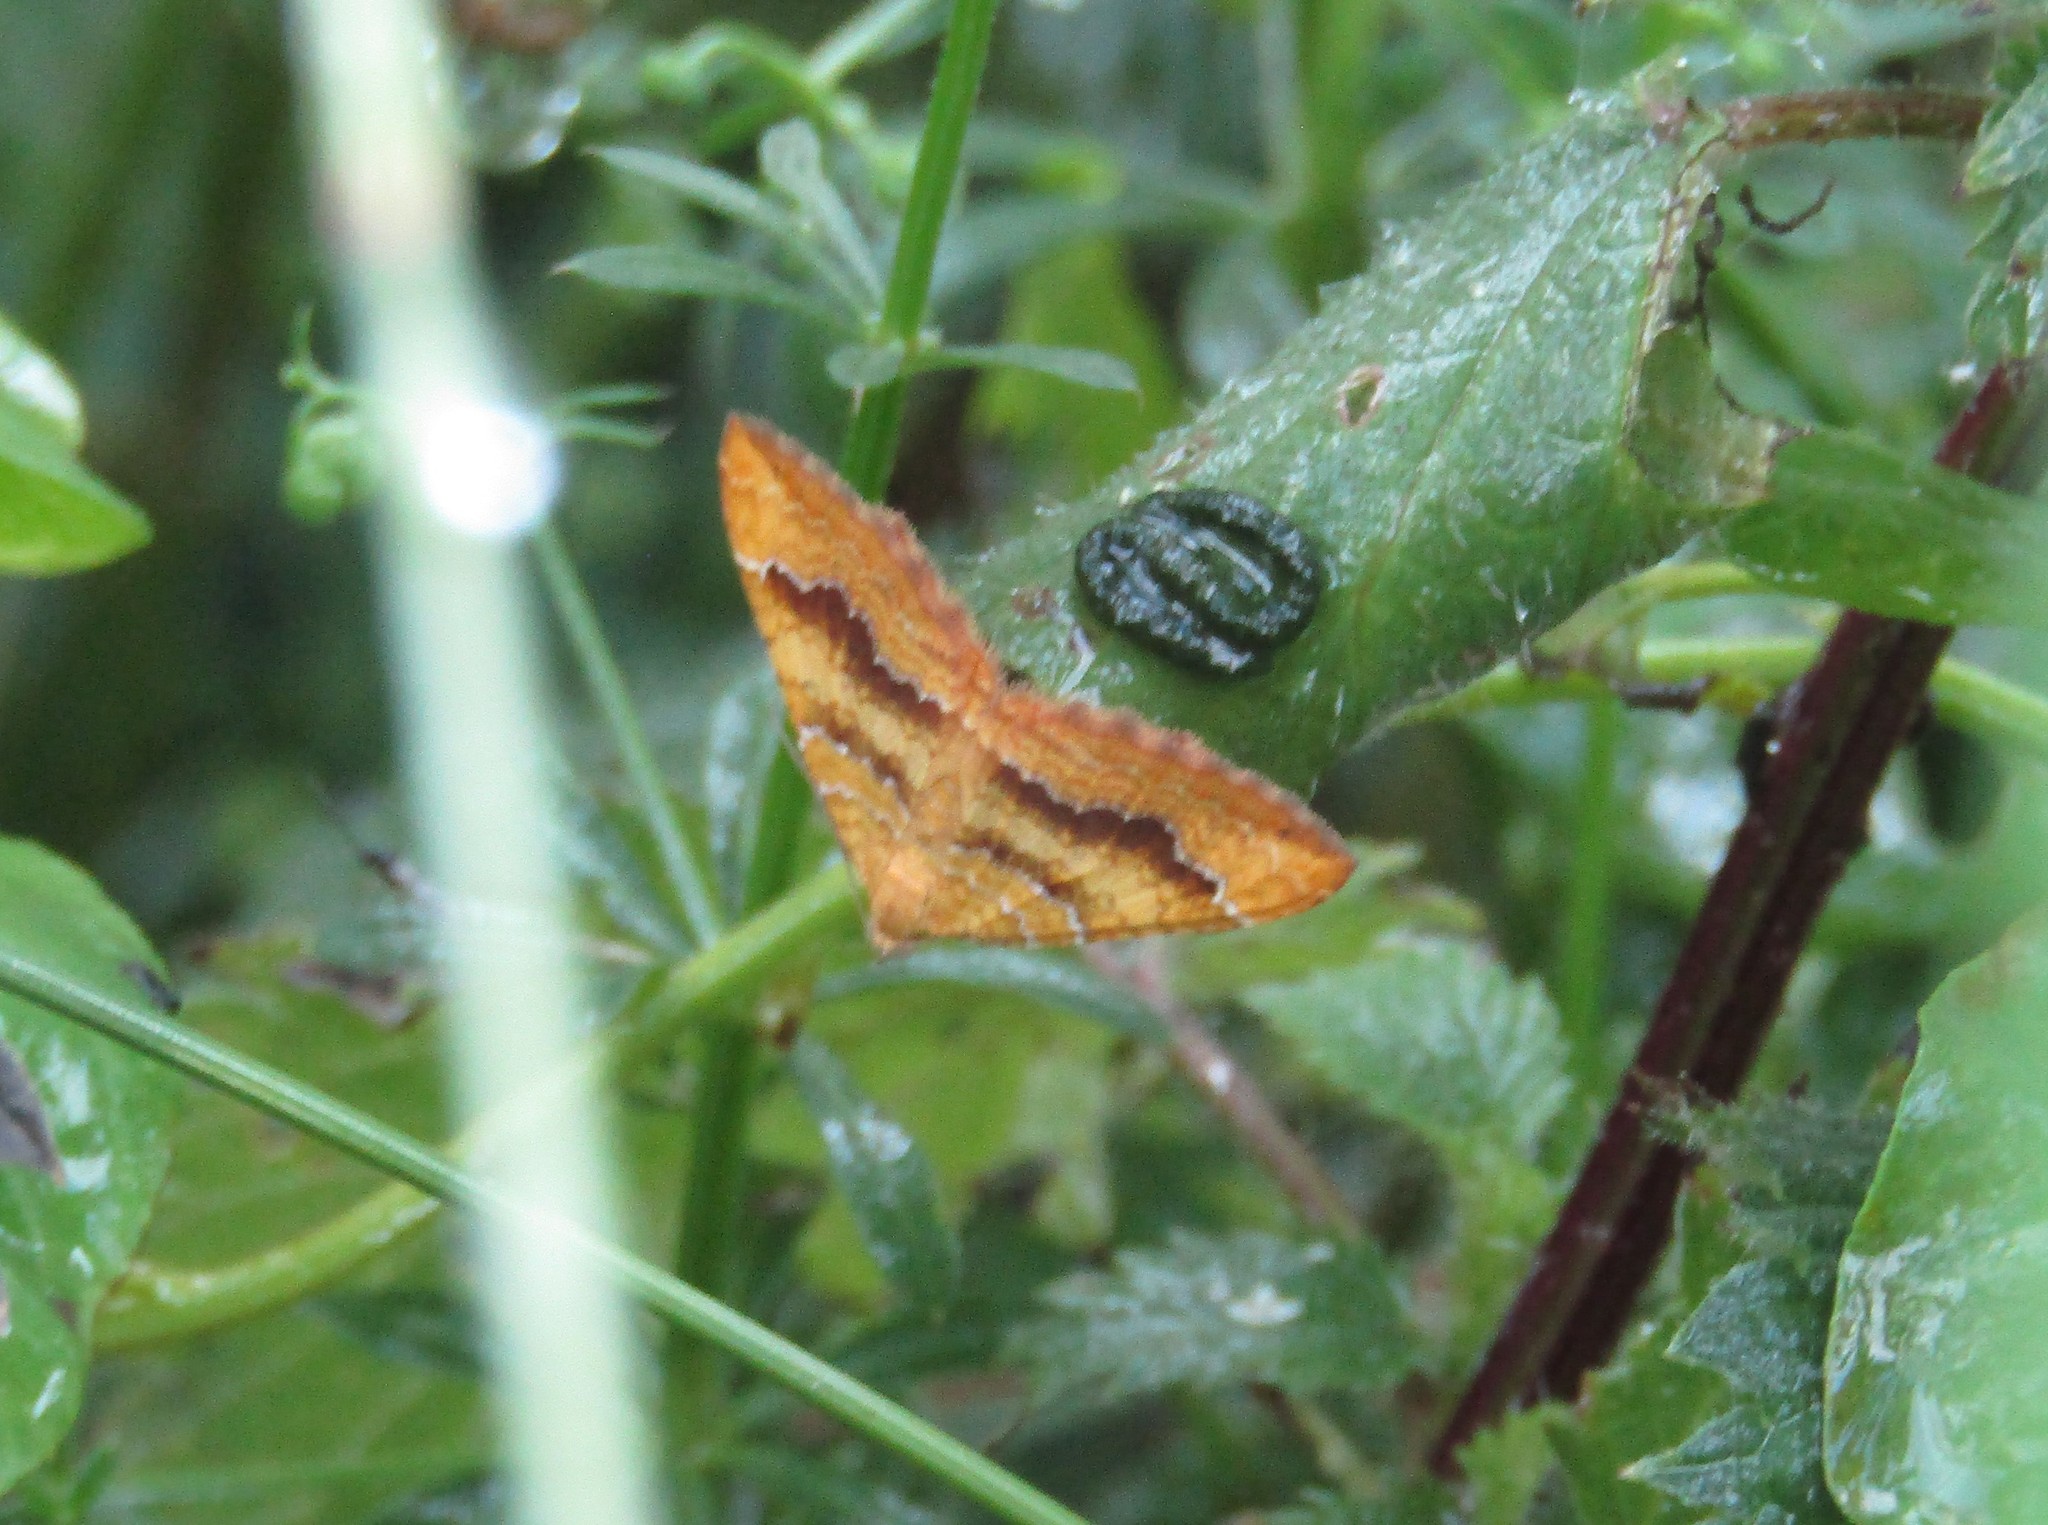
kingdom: Animalia
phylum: Arthropoda
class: Insecta
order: Lepidoptera
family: Geometridae
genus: Camptogramma
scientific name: Camptogramma bilineata
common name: Yellow shell
